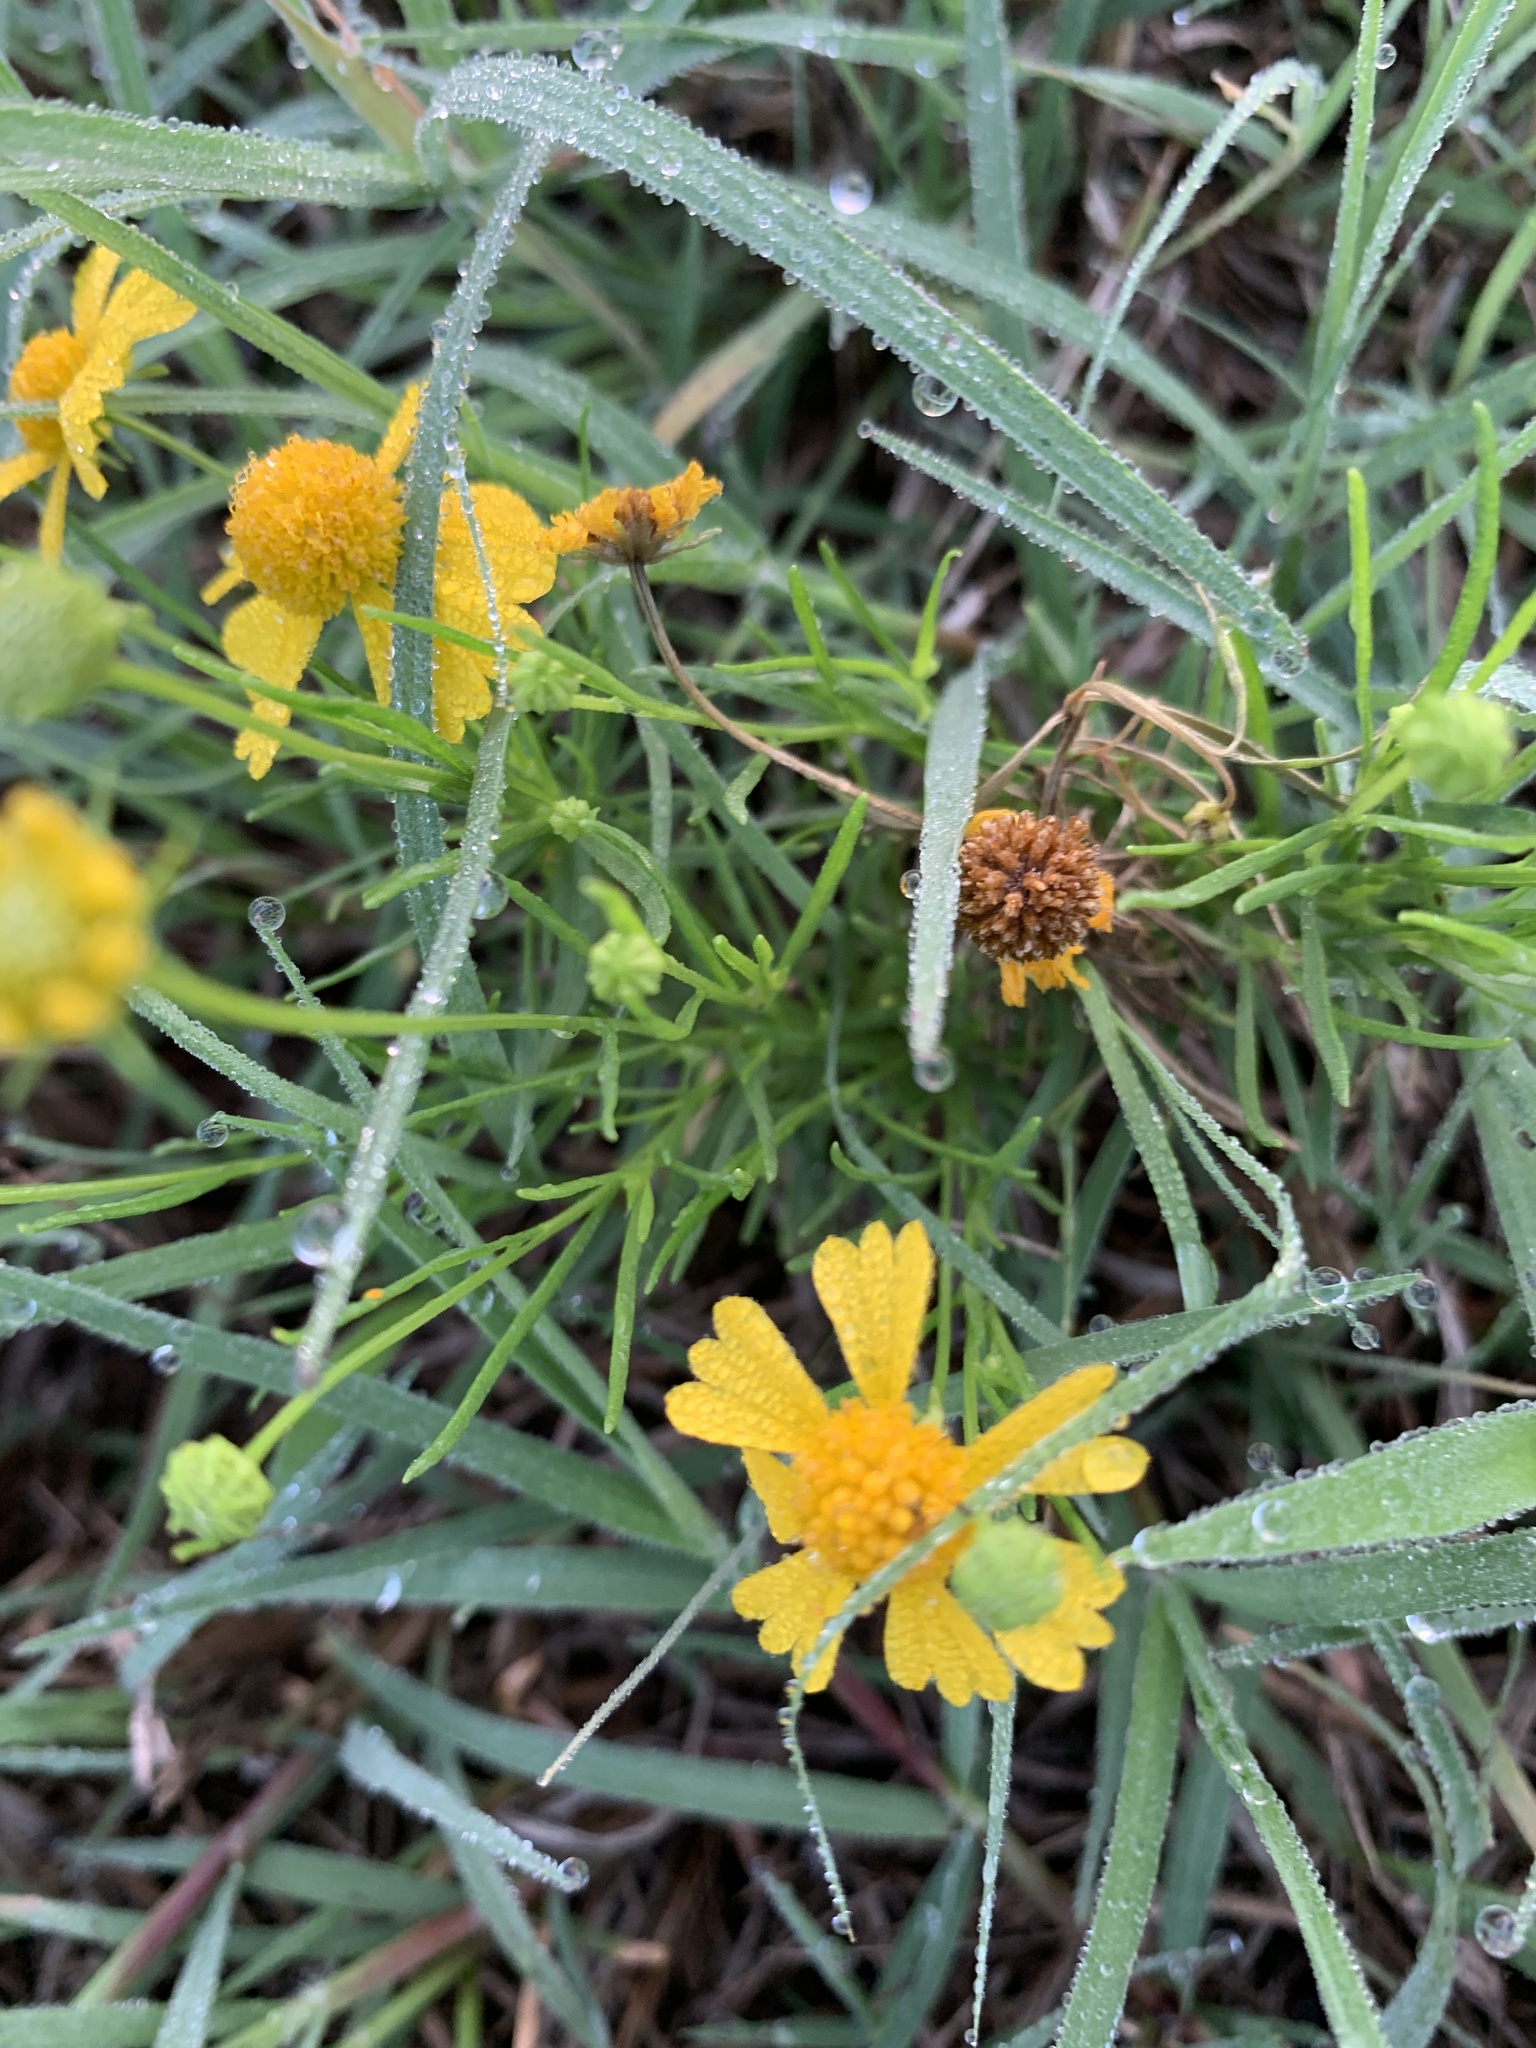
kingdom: Plantae
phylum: Tracheophyta
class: Magnoliopsida
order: Asterales
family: Asteraceae
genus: Helenium
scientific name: Helenium amarum
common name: Bitter sneezeweed
